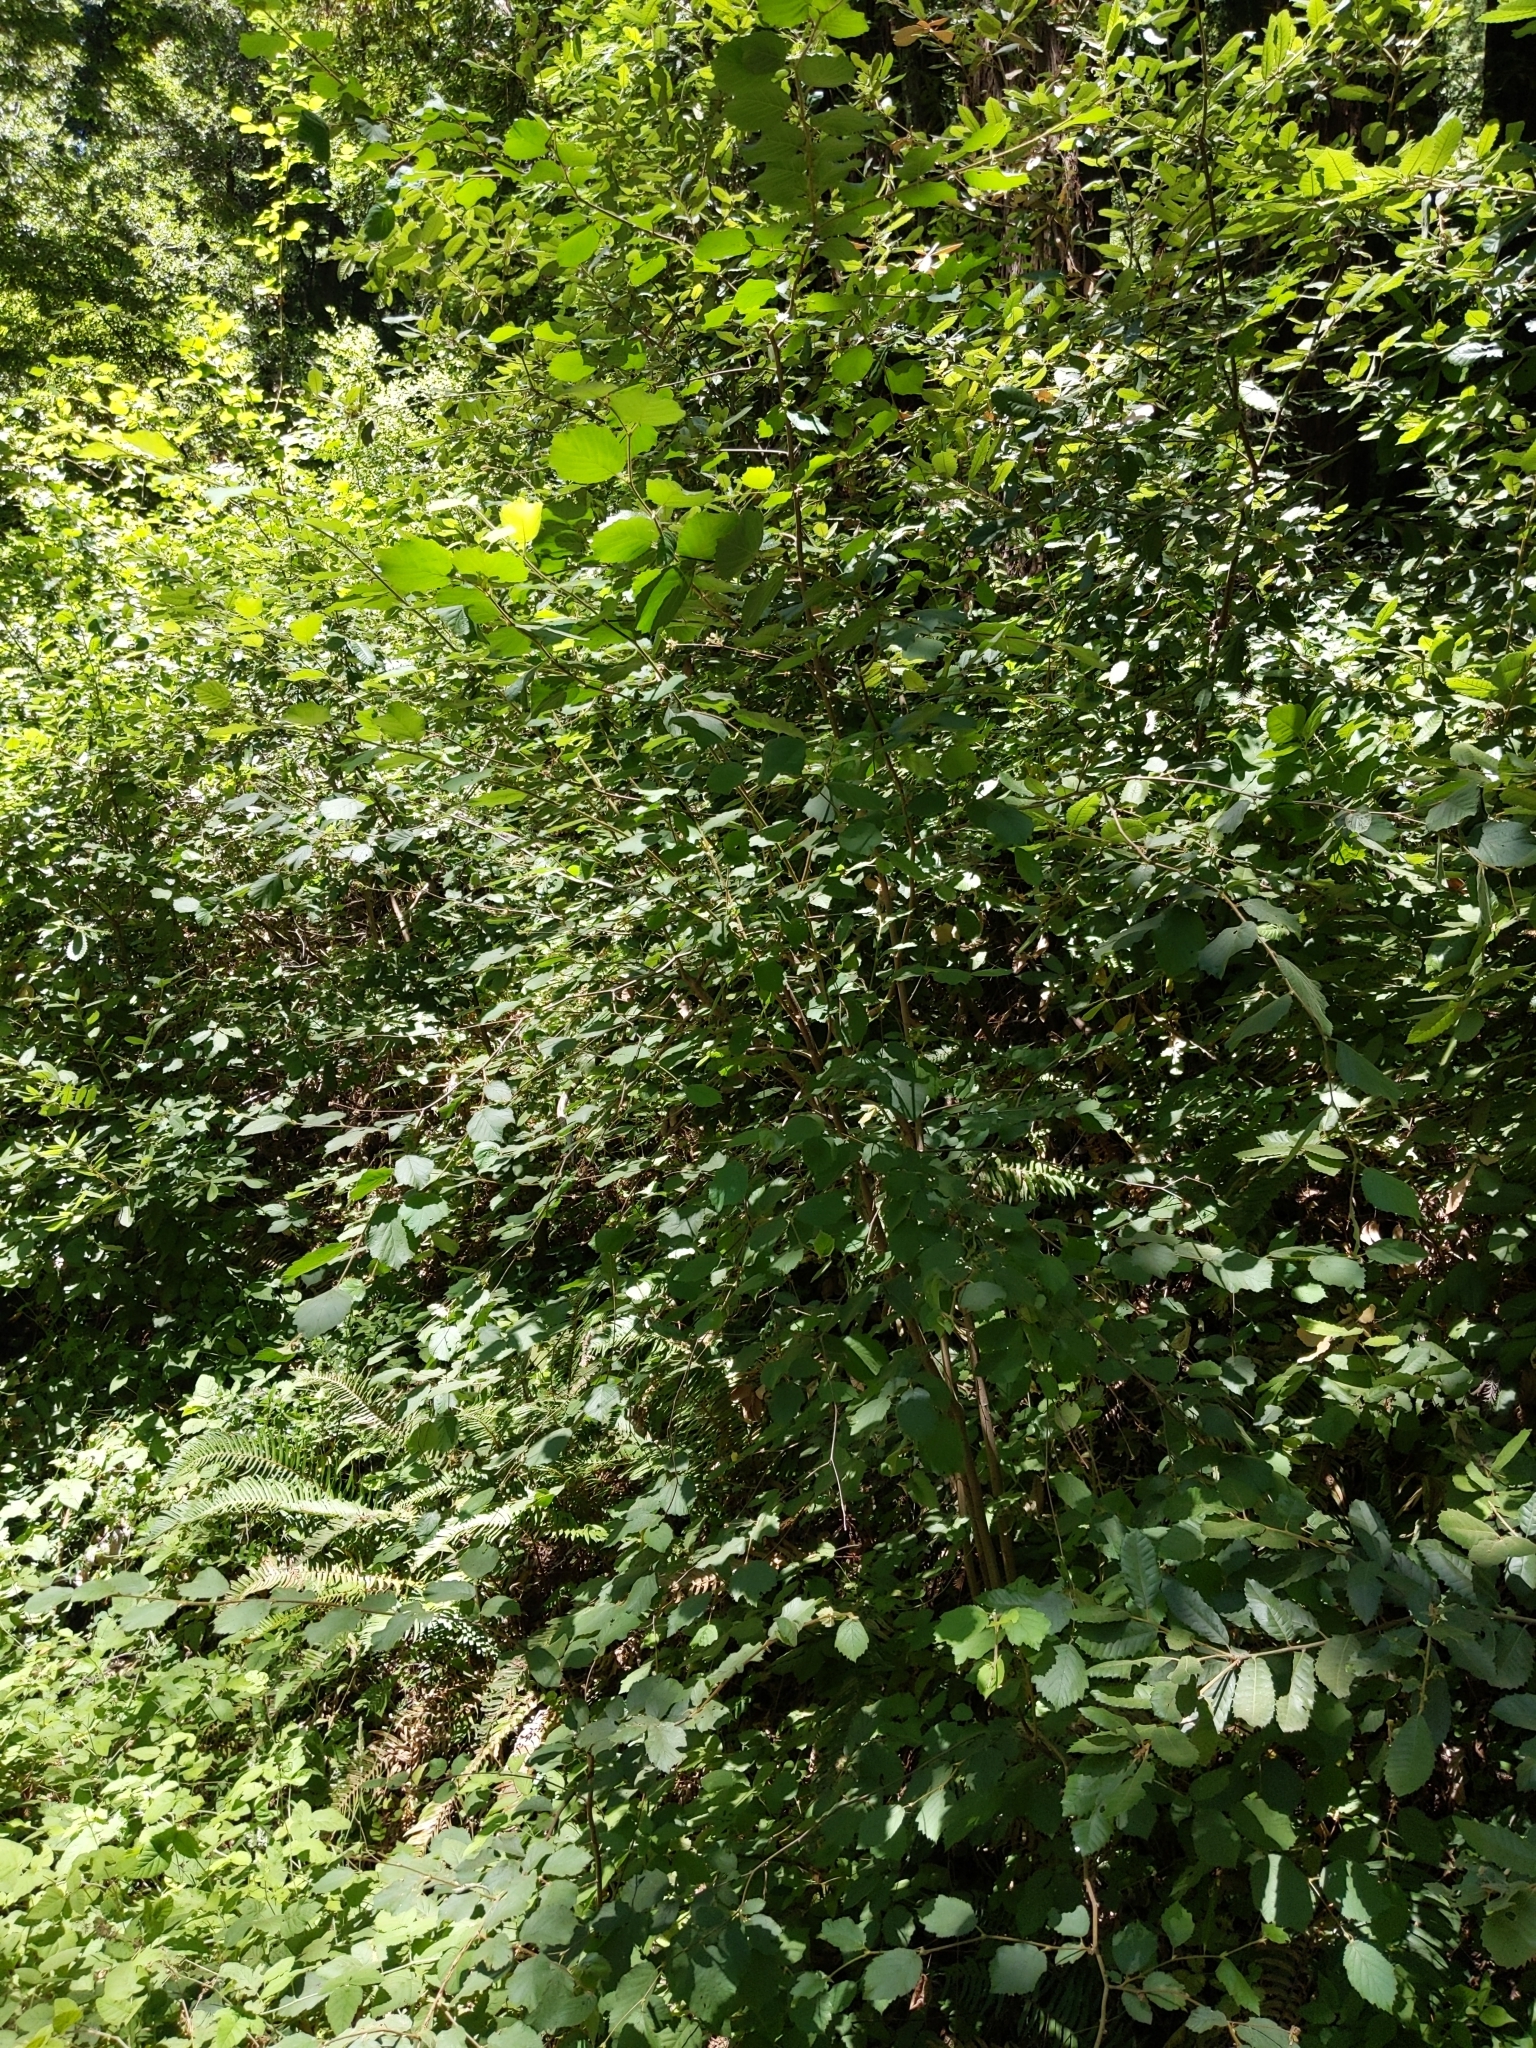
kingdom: Plantae
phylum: Tracheophyta
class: Magnoliopsida
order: Fagales
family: Betulaceae
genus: Corylus
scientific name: Corylus cornuta
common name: Beaked hazel
